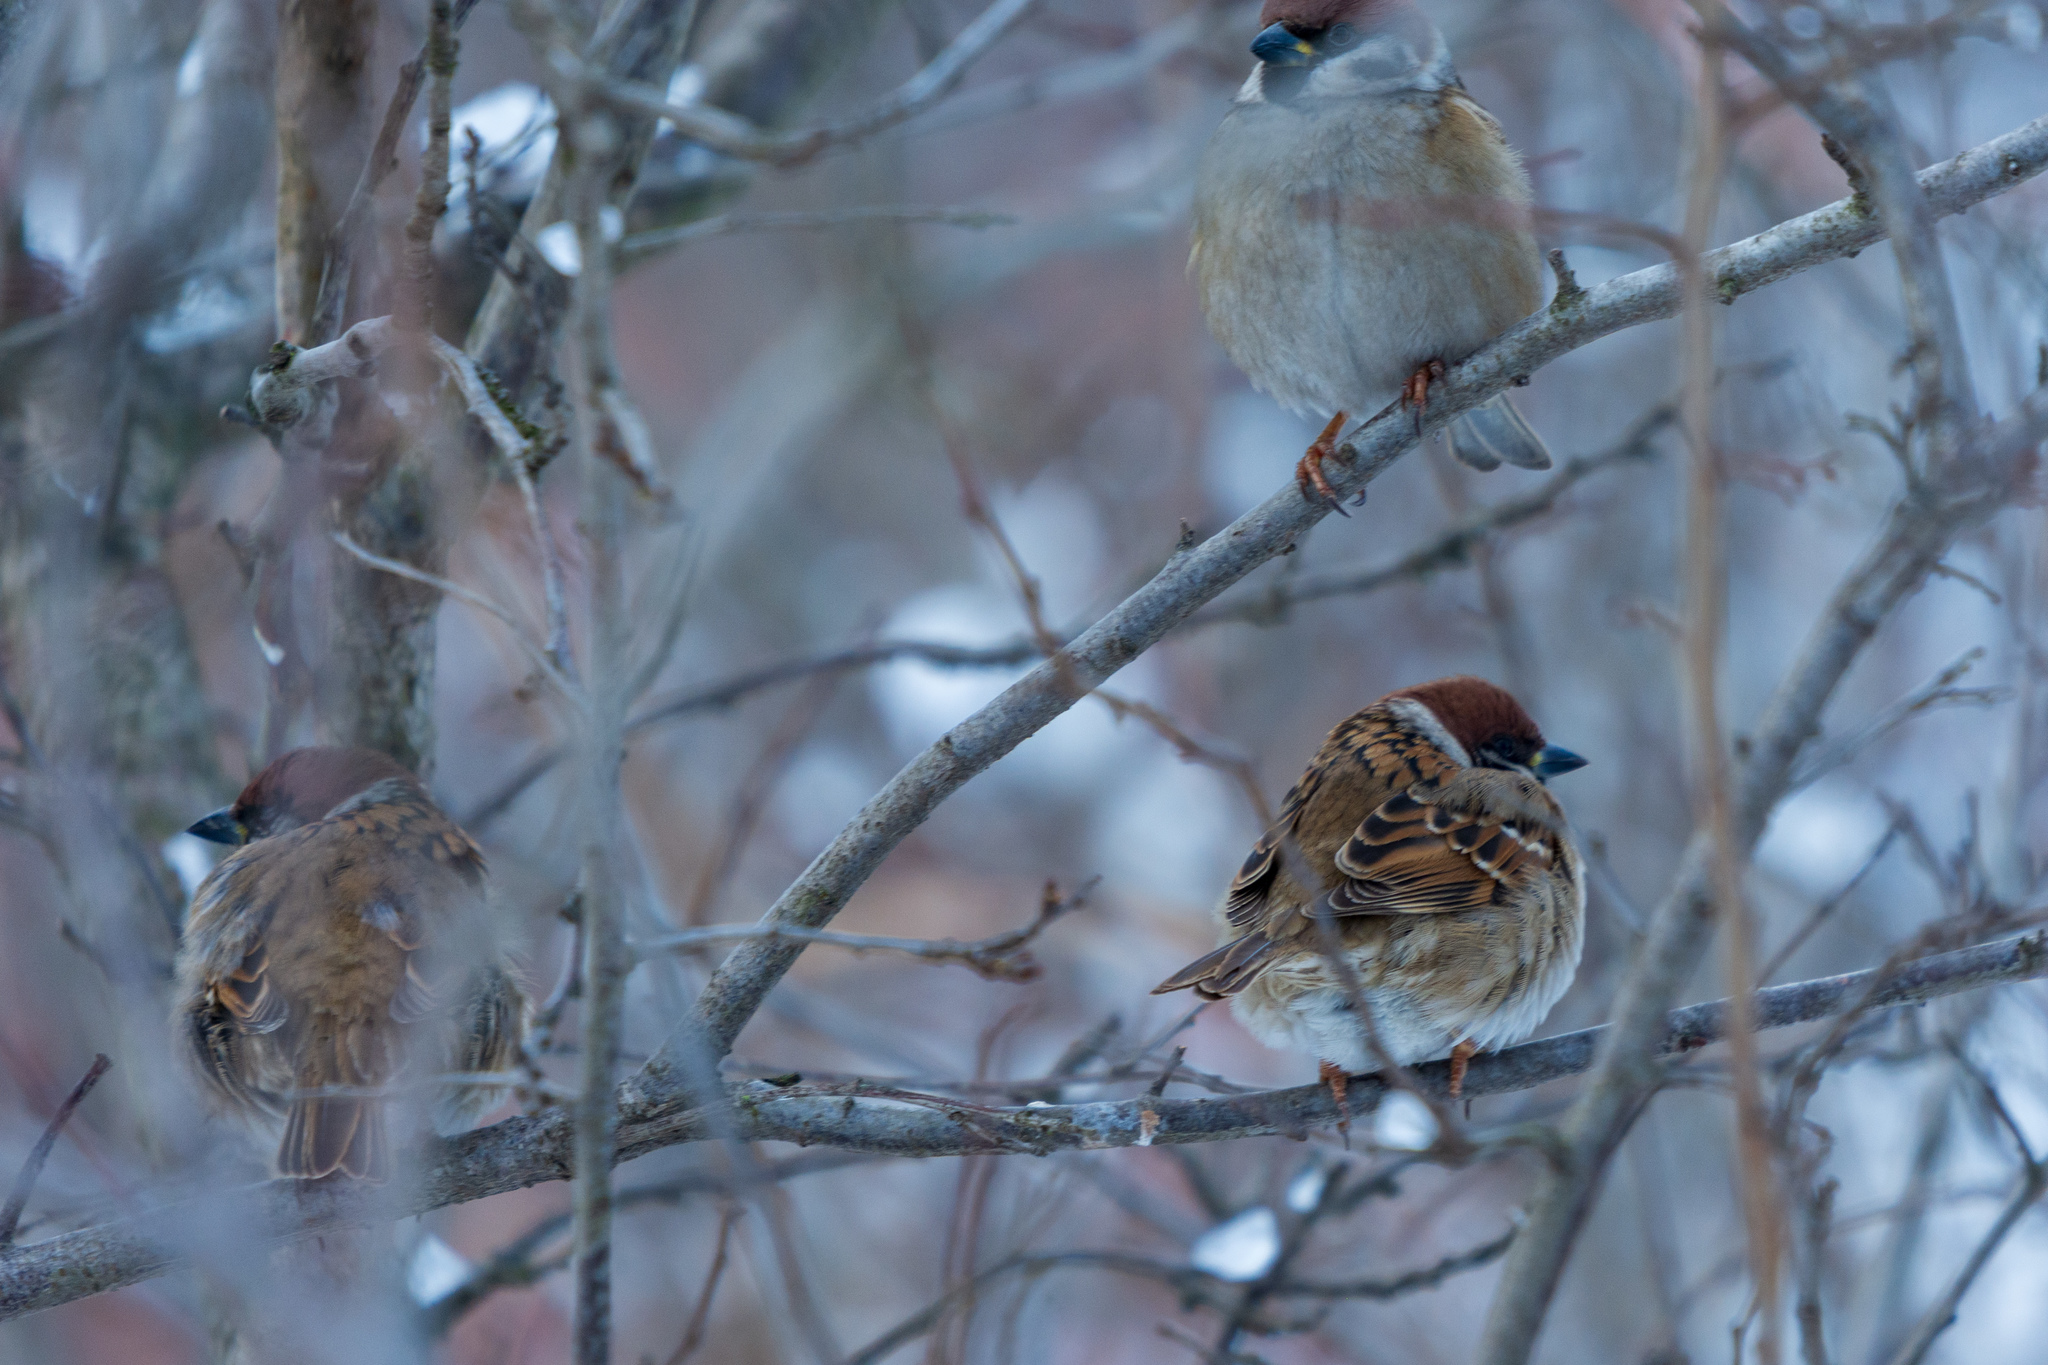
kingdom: Animalia
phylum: Chordata
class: Aves
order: Passeriformes
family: Passeridae
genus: Passer
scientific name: Passer montanus
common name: Eurasian tree sparrow
